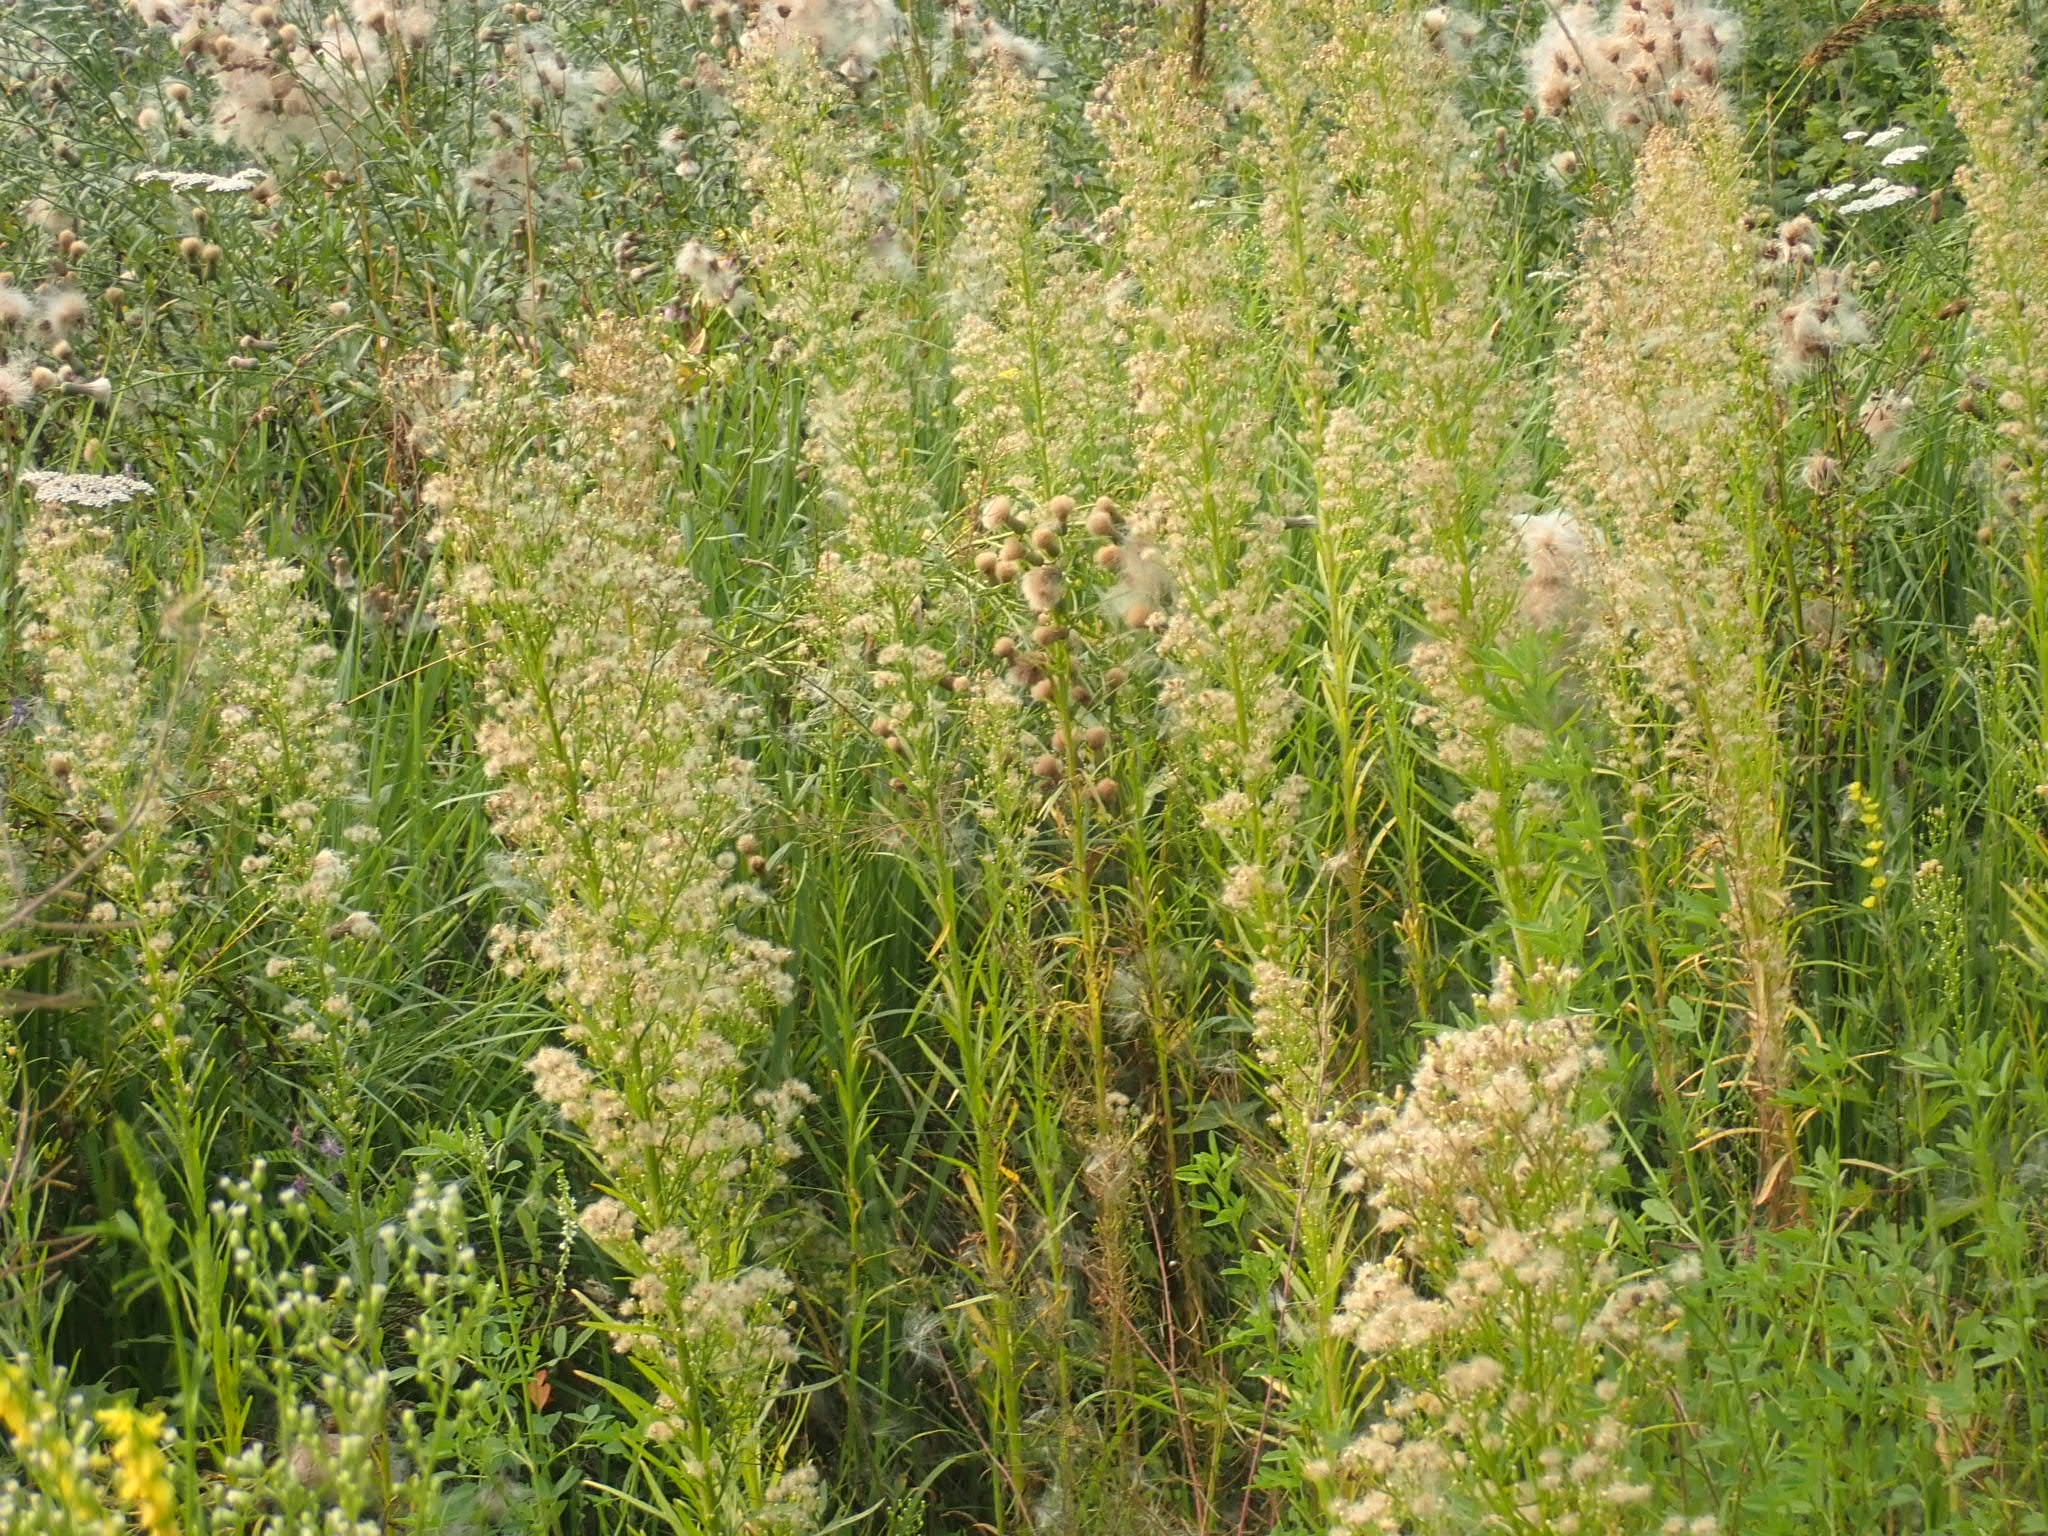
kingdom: Plantae
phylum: Tracheophyta
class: Magnoliopsida
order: Asterales
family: Asteraceae
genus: Erigeron
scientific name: Erigeron canadensis
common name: Canadian fleabane
